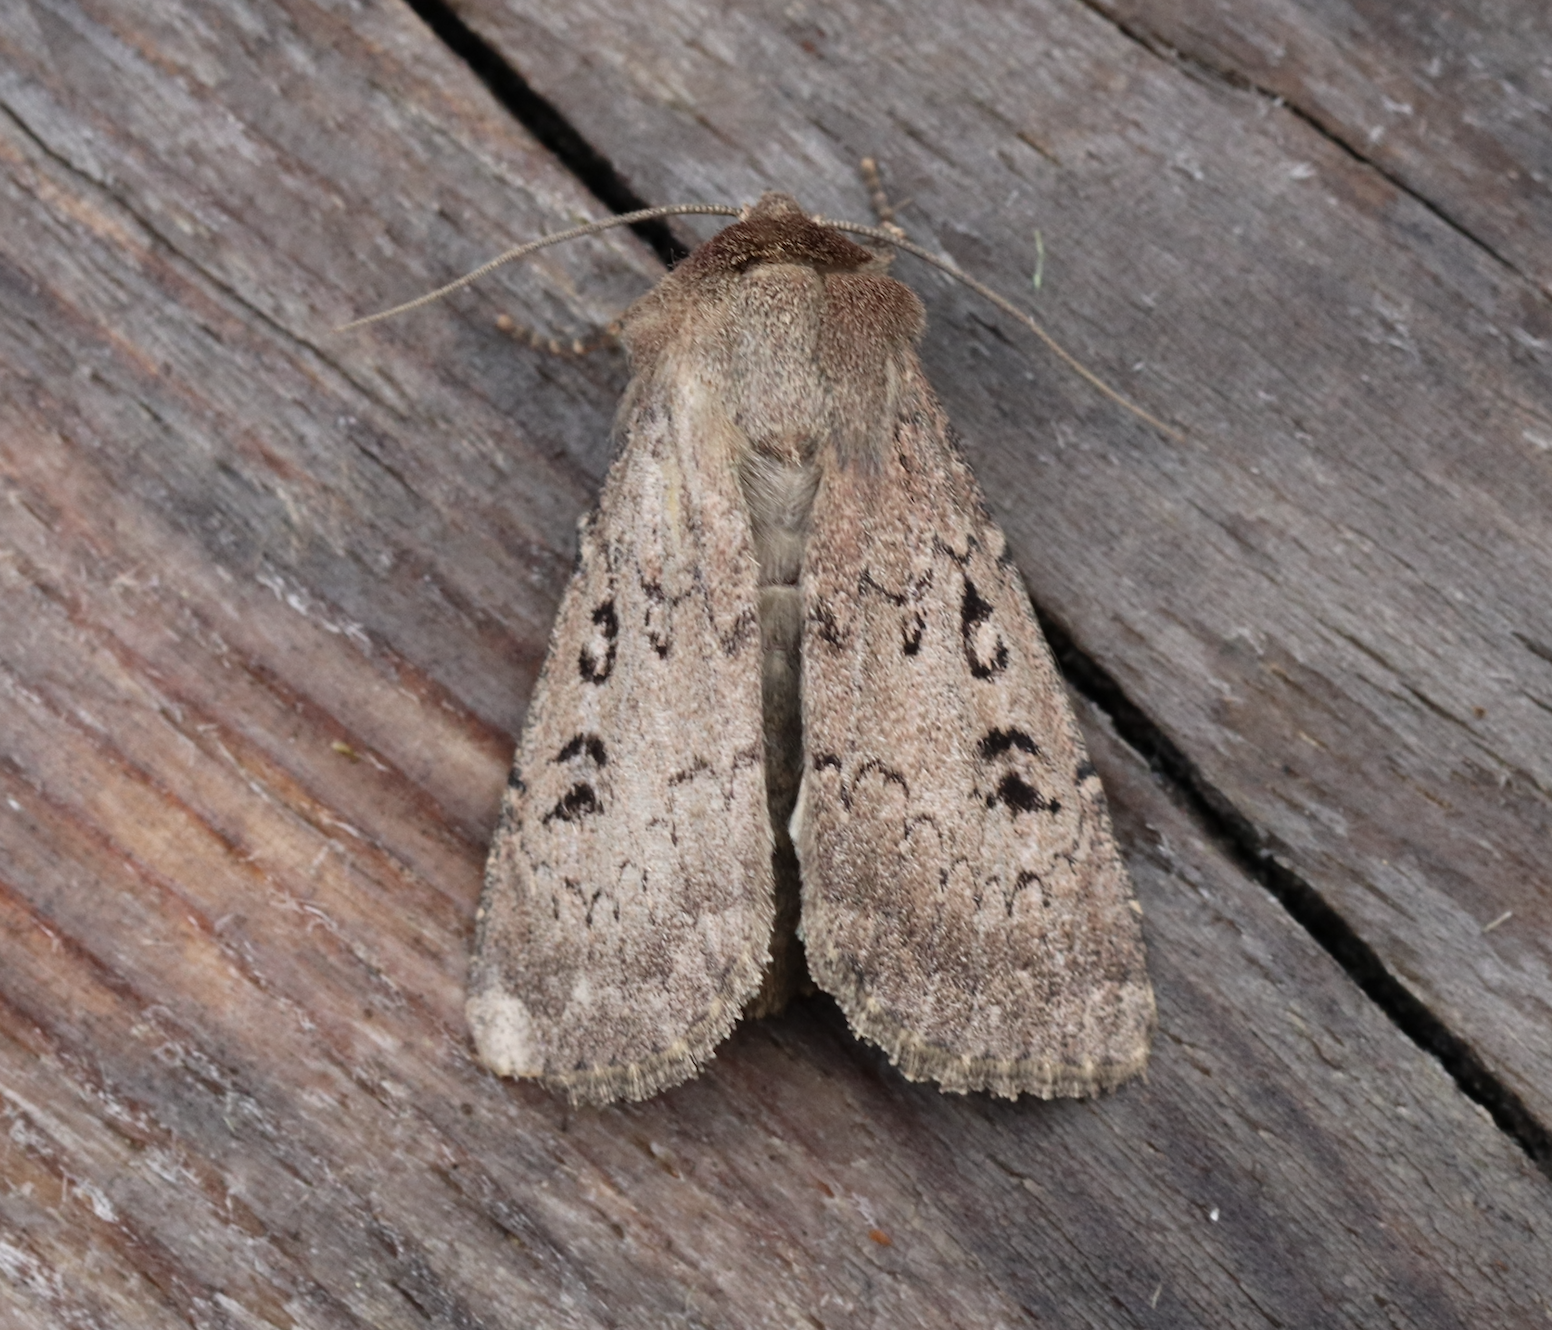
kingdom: Animalia
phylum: Arthropoda
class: Insecta
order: Lepidoptera
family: Noctuidae
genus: Graphiphora
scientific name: Graphiphora augur
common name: Double dart
